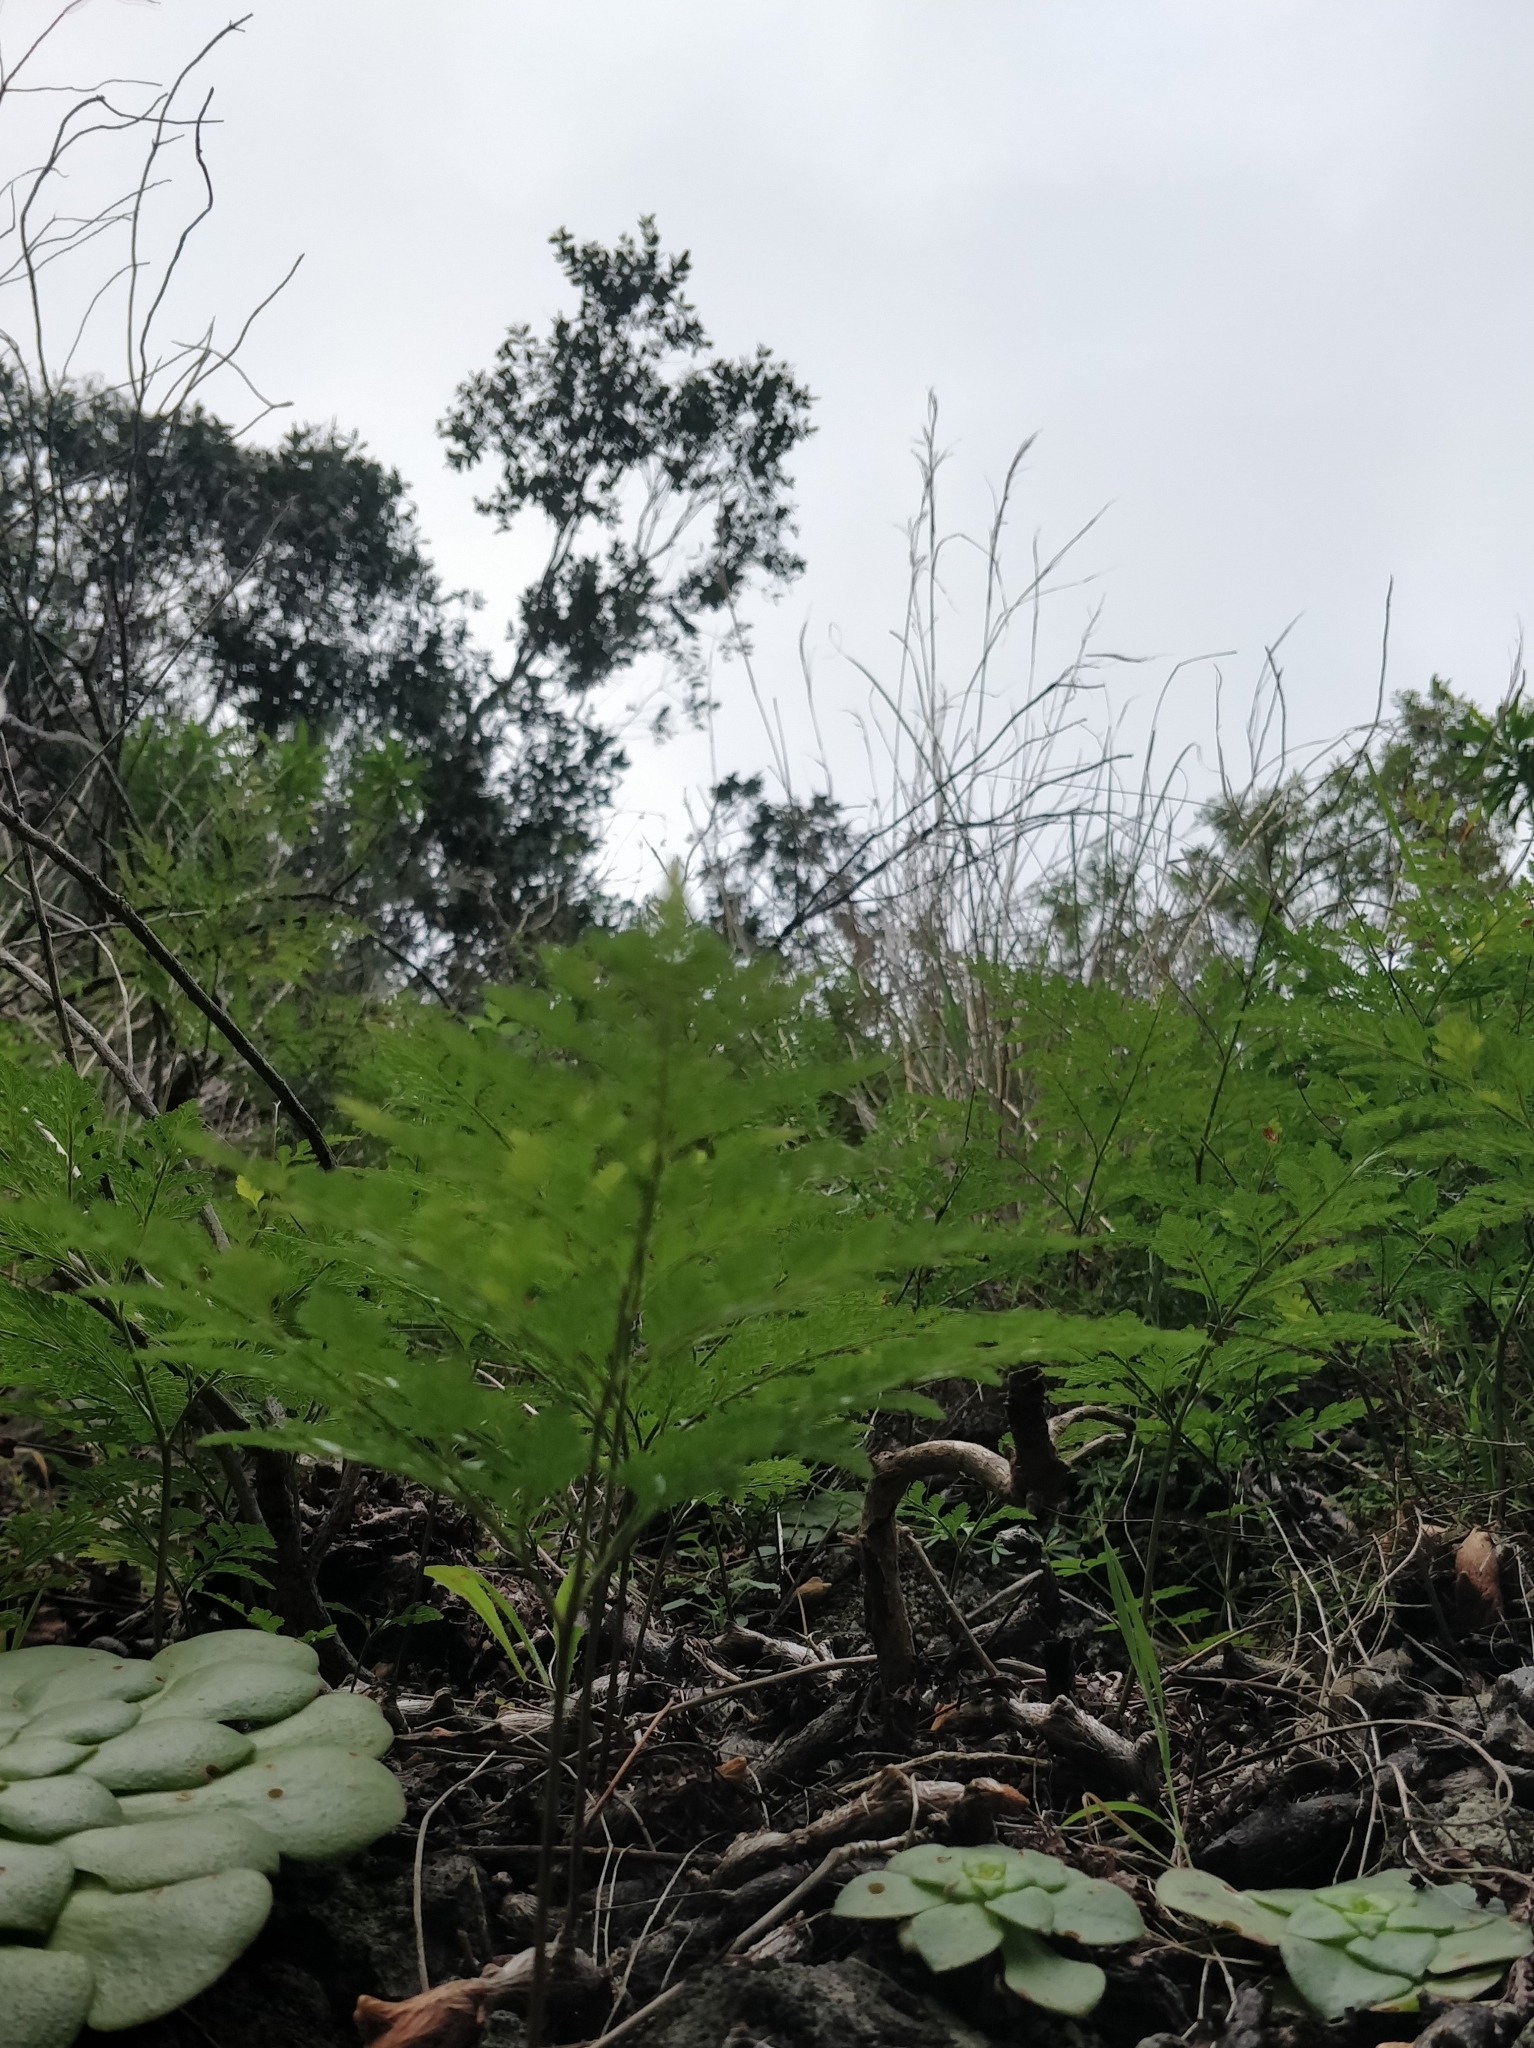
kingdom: Plantae
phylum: Tracheophyta
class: Polypodiopsida
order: Polypodiales
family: Davalliaceae
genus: Davallia
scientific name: Davallia canariensis
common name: Hare's-foot fern
